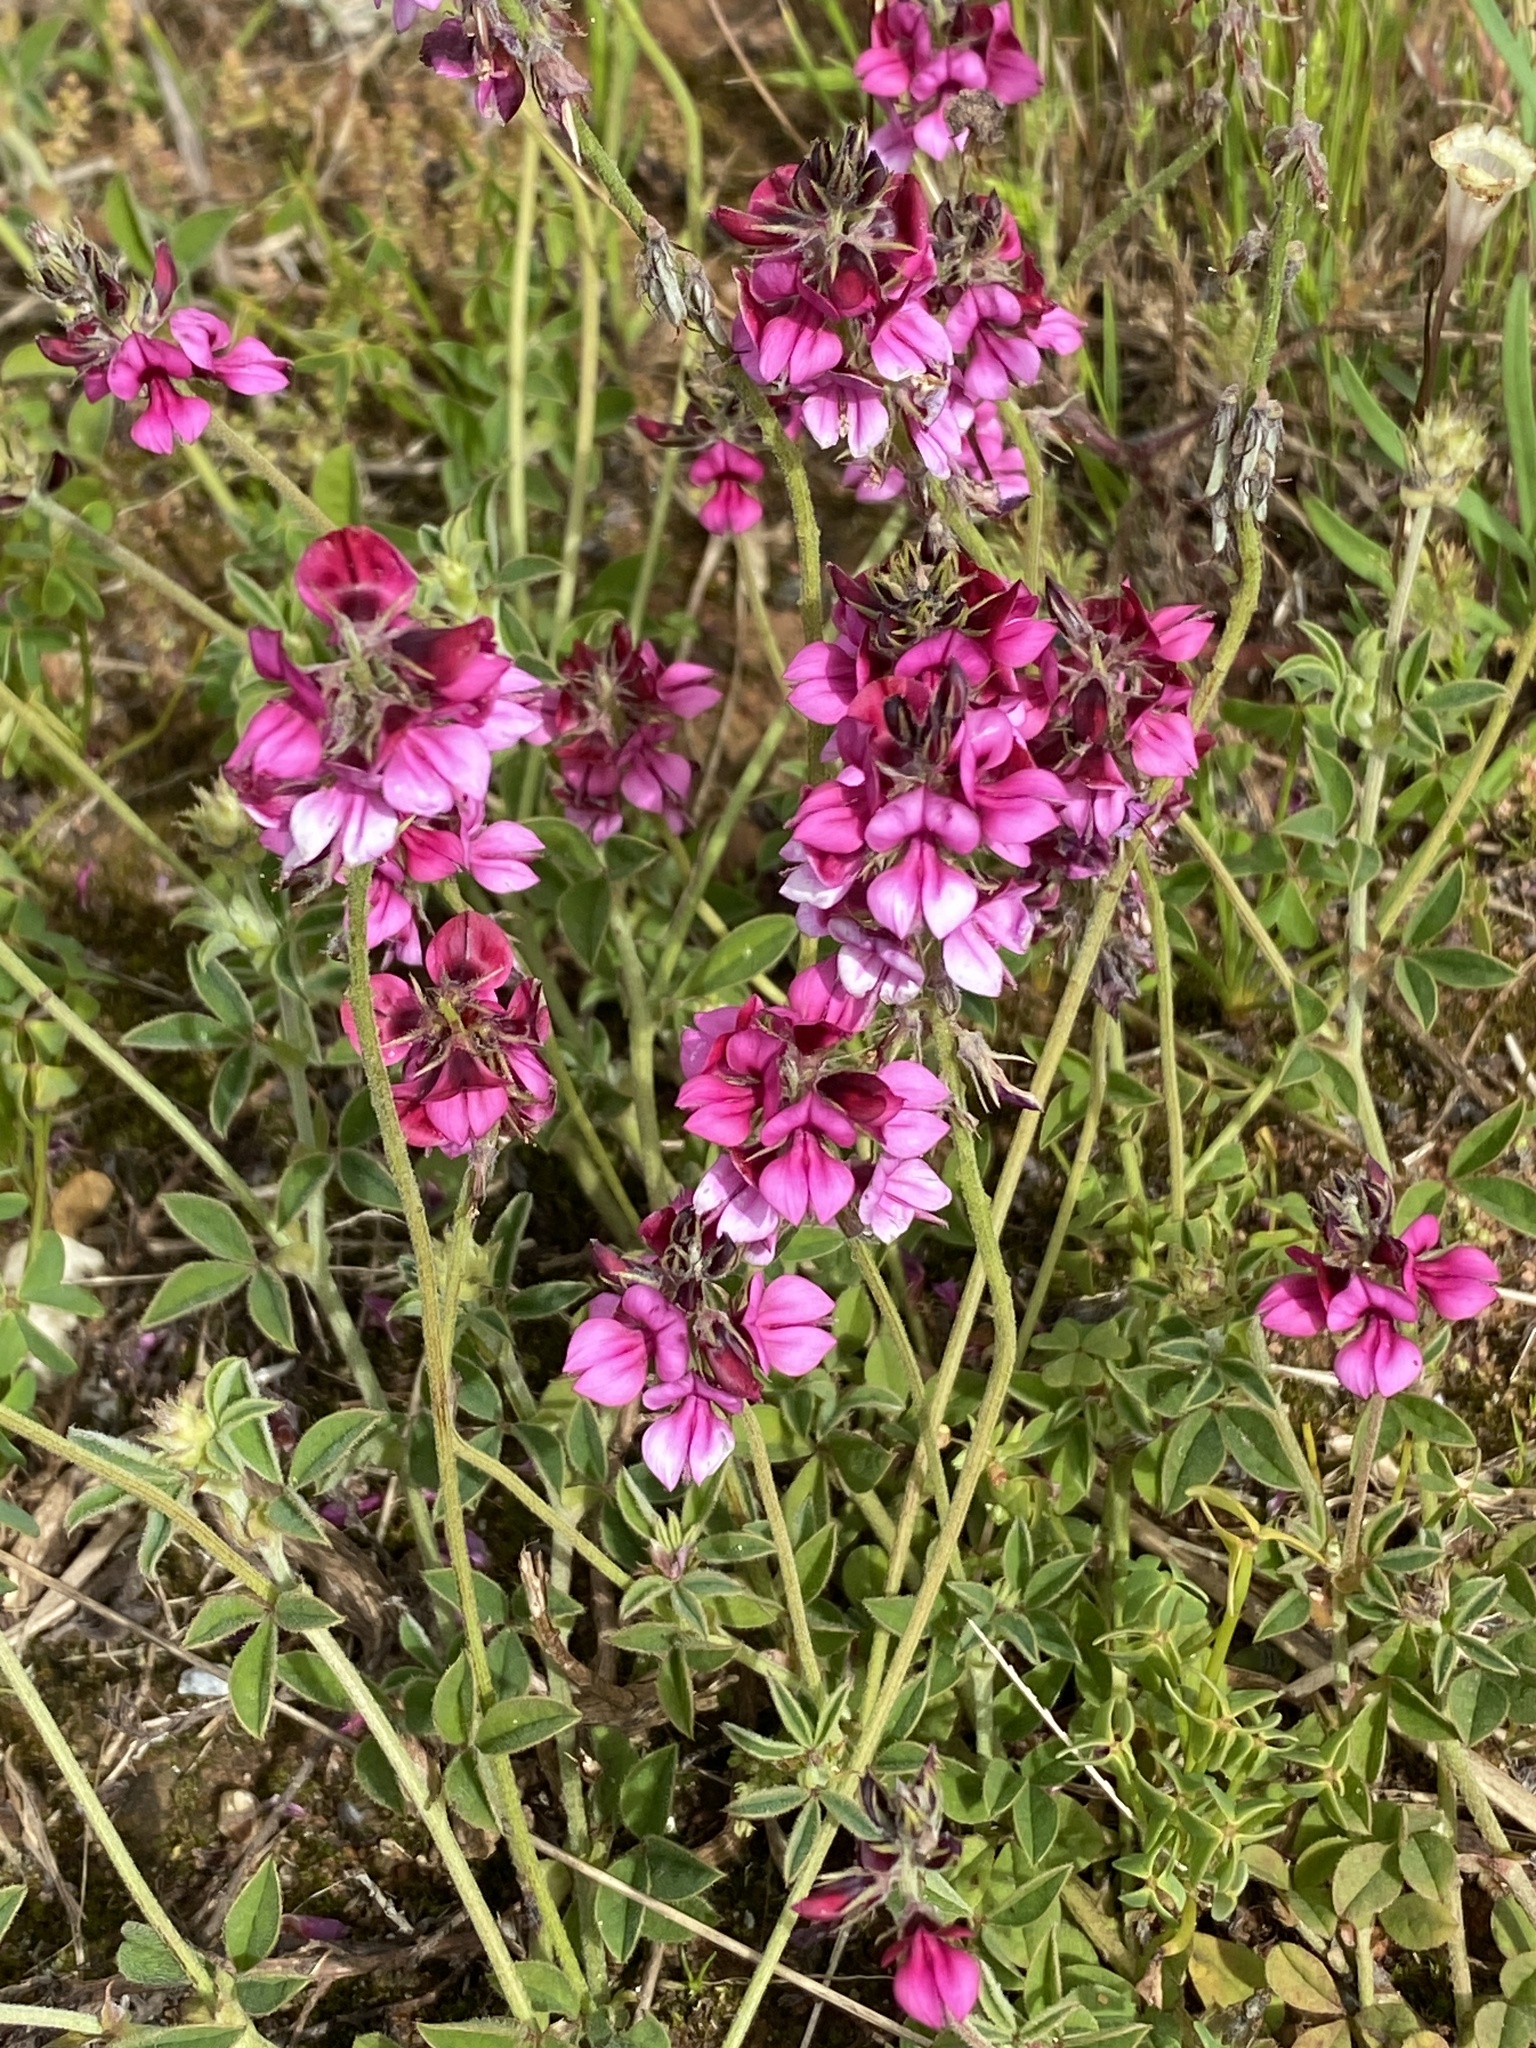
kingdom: Plantae
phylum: Tracheophyta
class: Magnoliopsida
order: Fabales
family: Fabaceae
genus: Indigofera
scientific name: Indigofera incana
